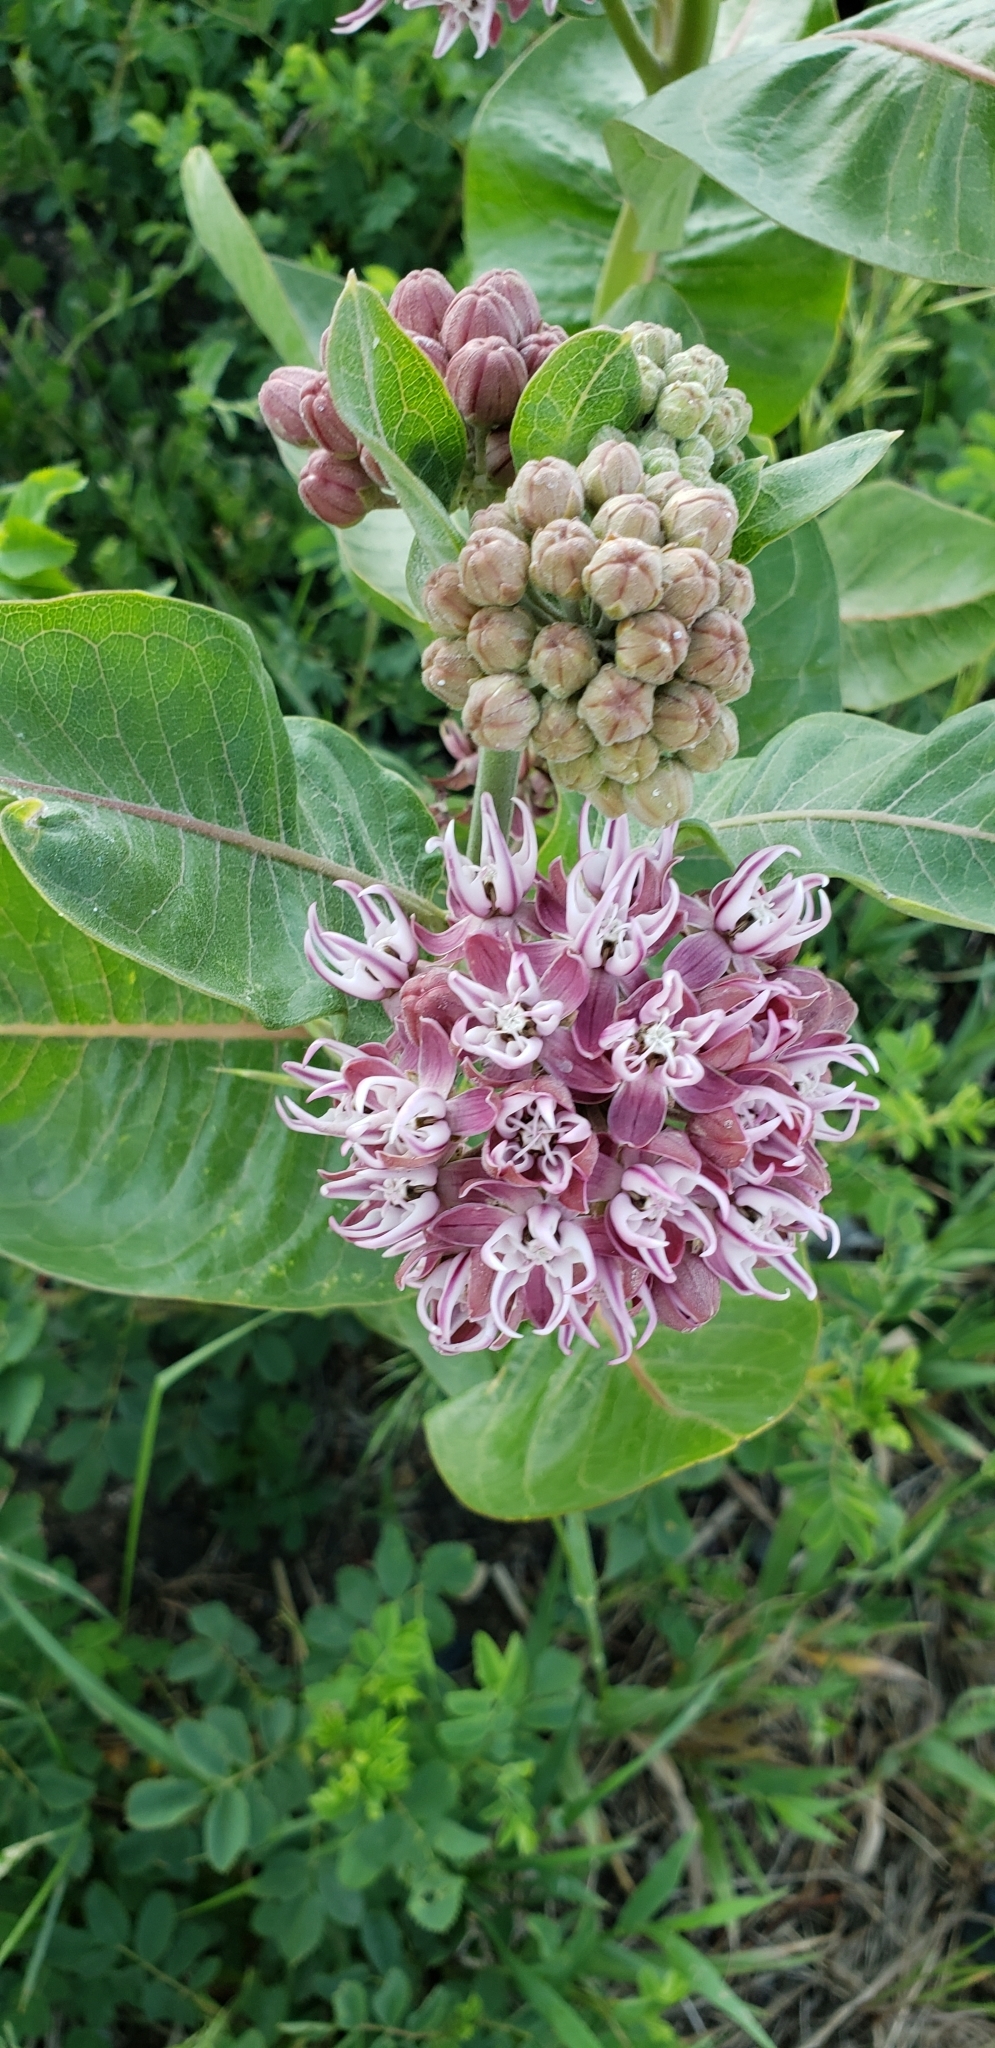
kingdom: Plantae
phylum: Tracheophyta
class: Magnoliopsida
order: Gentianales
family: Apocynaceae
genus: Asclepias
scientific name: Asclepias speciosa
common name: Showy milkweed
